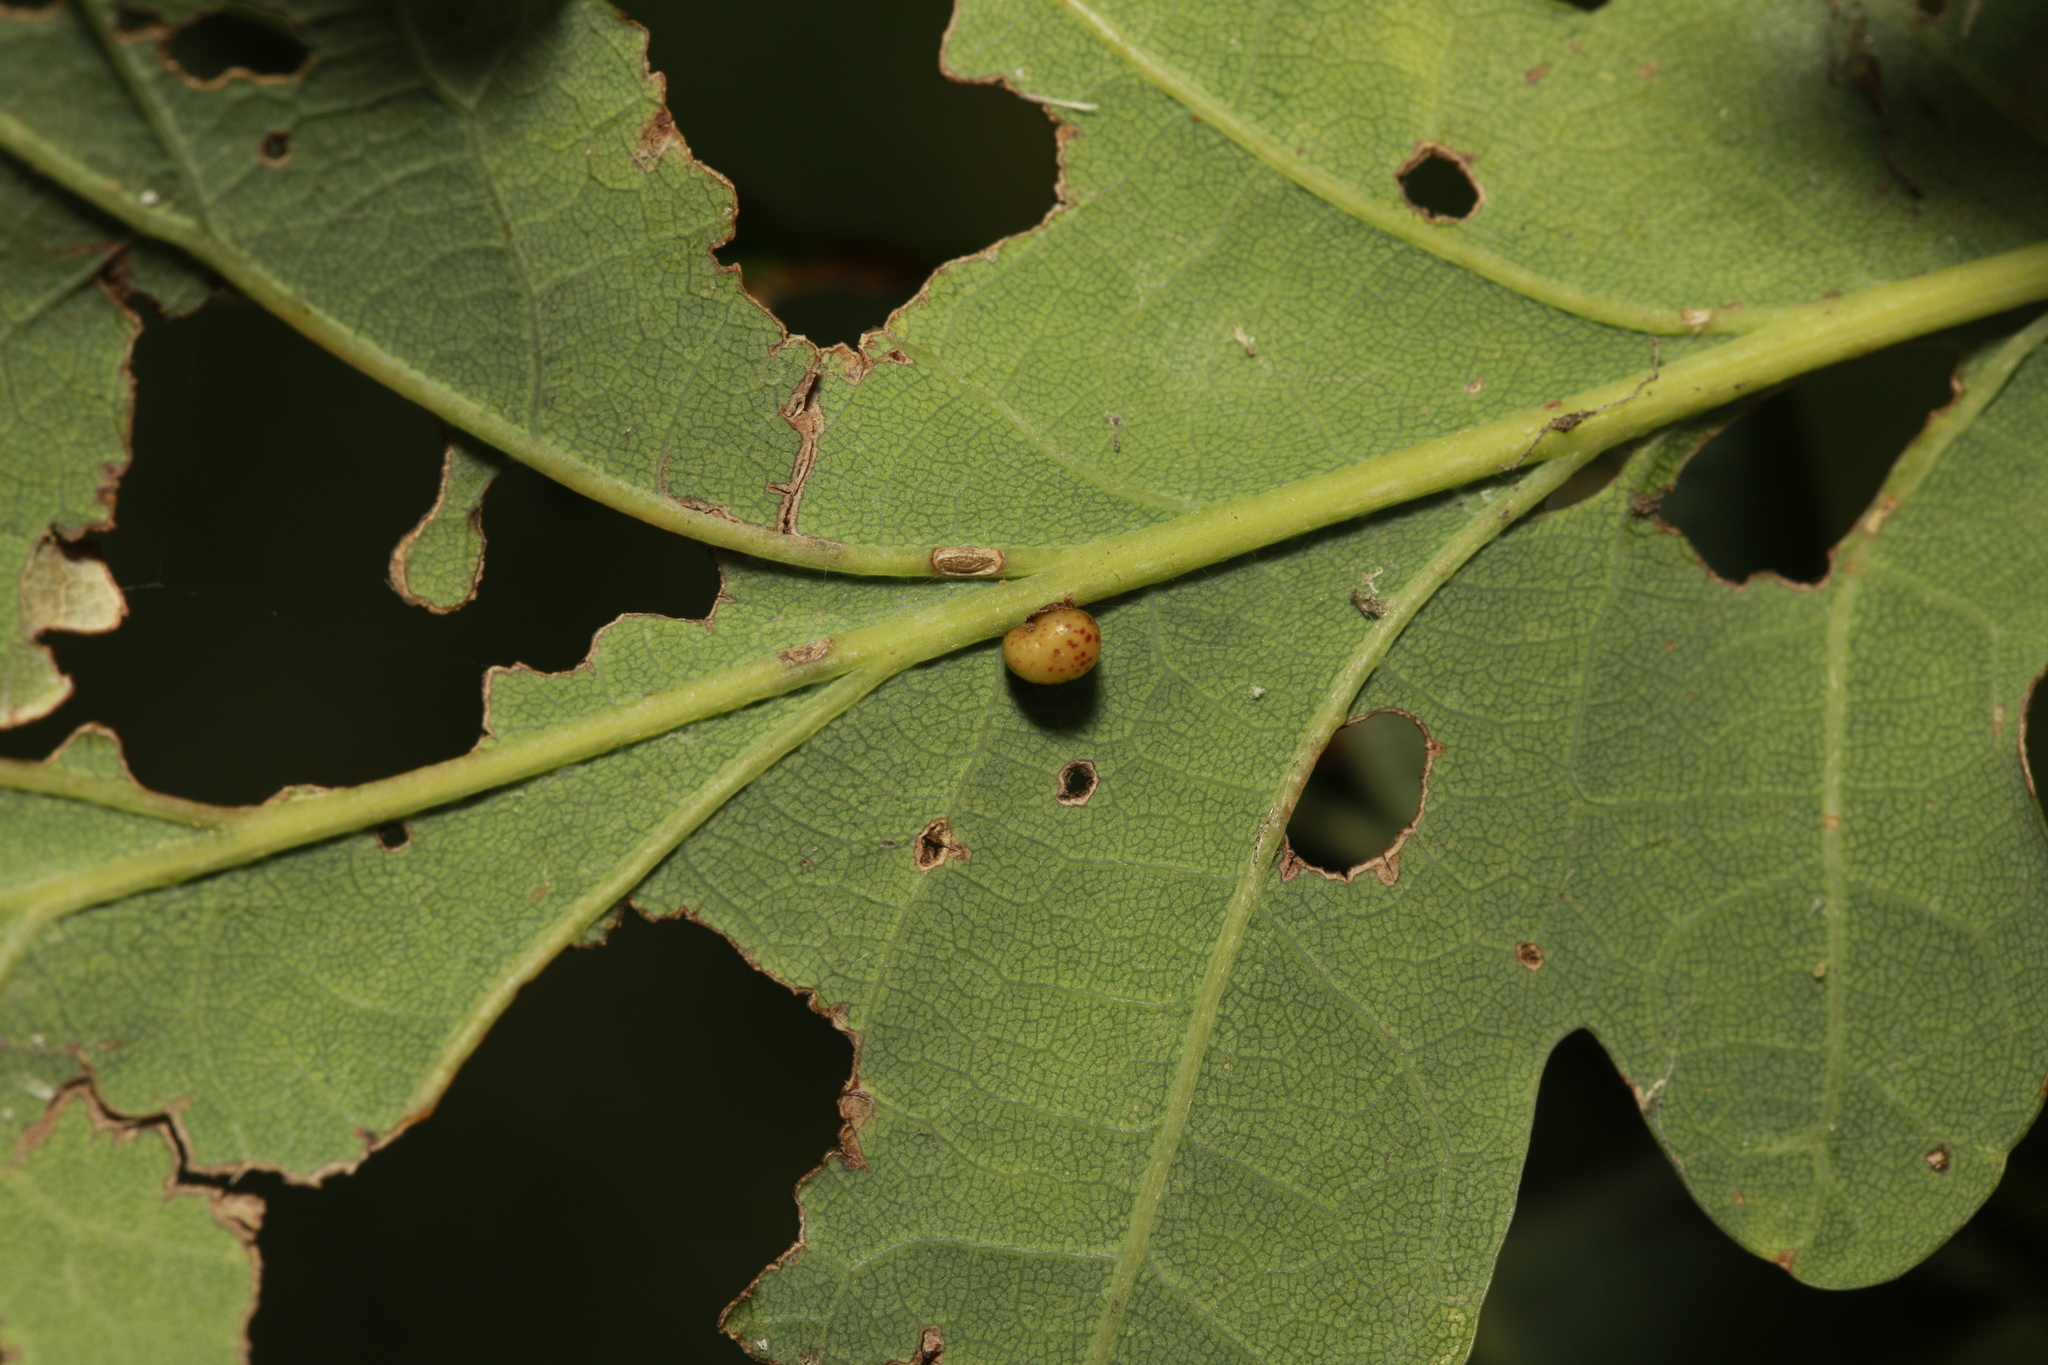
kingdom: Animalia
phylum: Arthropoda
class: Insecta
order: Hymenoptera
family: Cynipidae
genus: Neuroterus
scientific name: Neuroterus anthracinus
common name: Oyster gall
